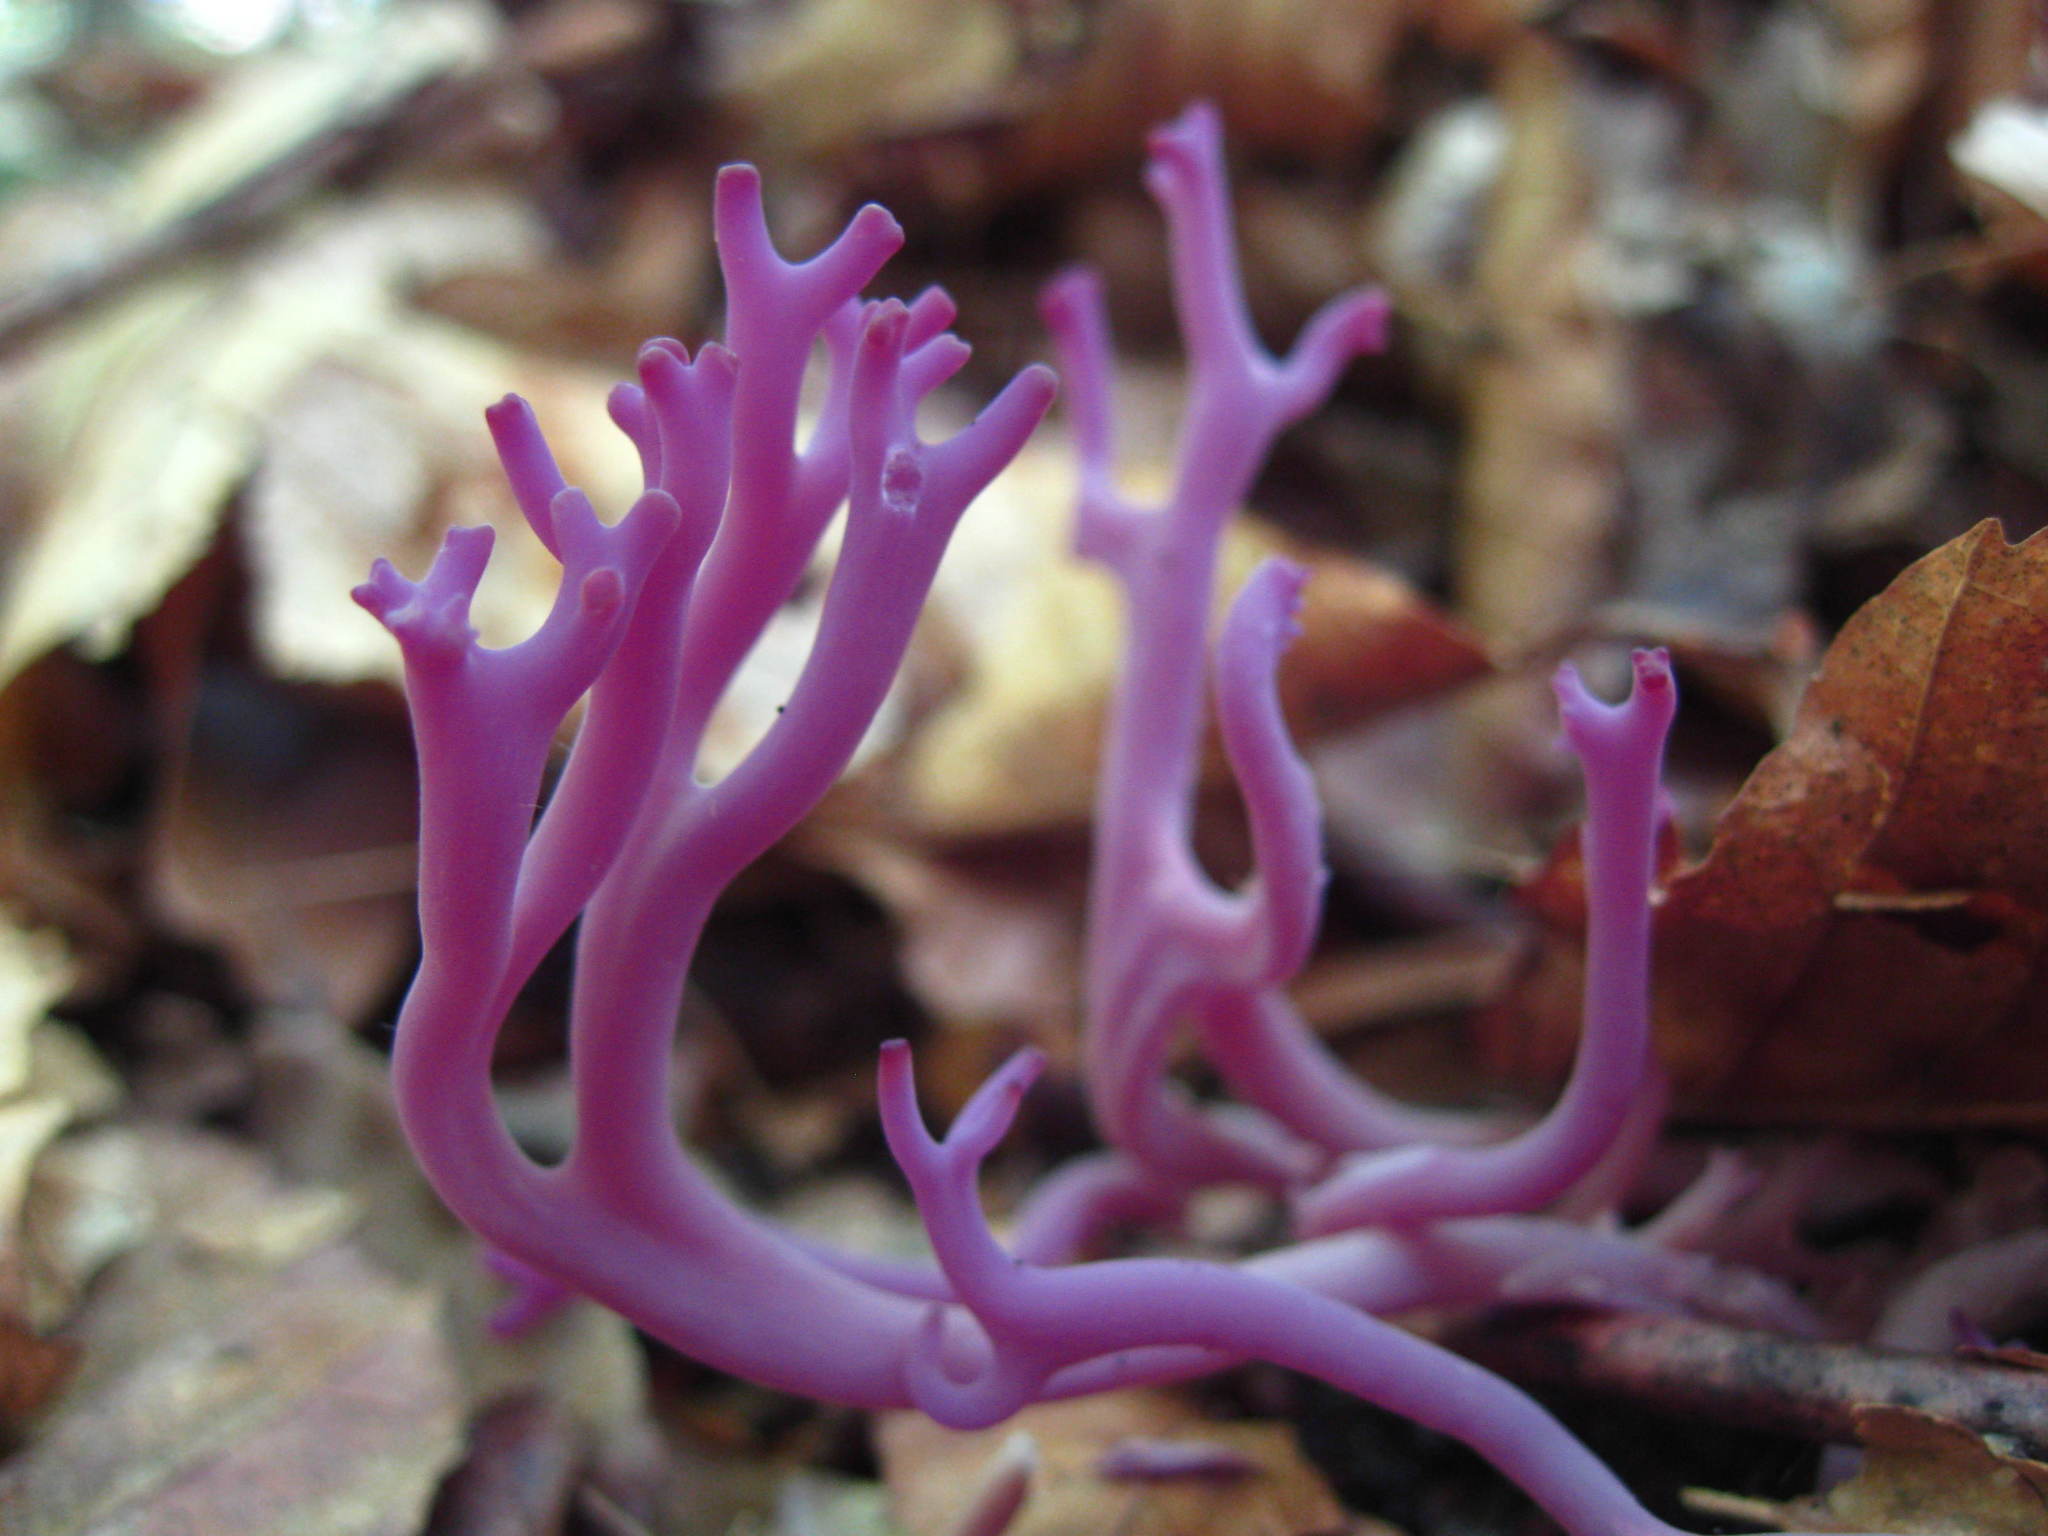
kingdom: Fungi
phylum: Basidiomycota
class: Agaricomycetes
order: Agaricales
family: Clavariaceae
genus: Clavaria
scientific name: Clavaria zollingeri
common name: Violet coral
